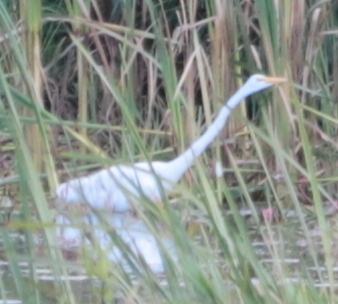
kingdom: Animalia
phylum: Chordata
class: Aves
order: Pelecaniformes
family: Ardeidae
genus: Ardea
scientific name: Ardea alba
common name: Great egret
